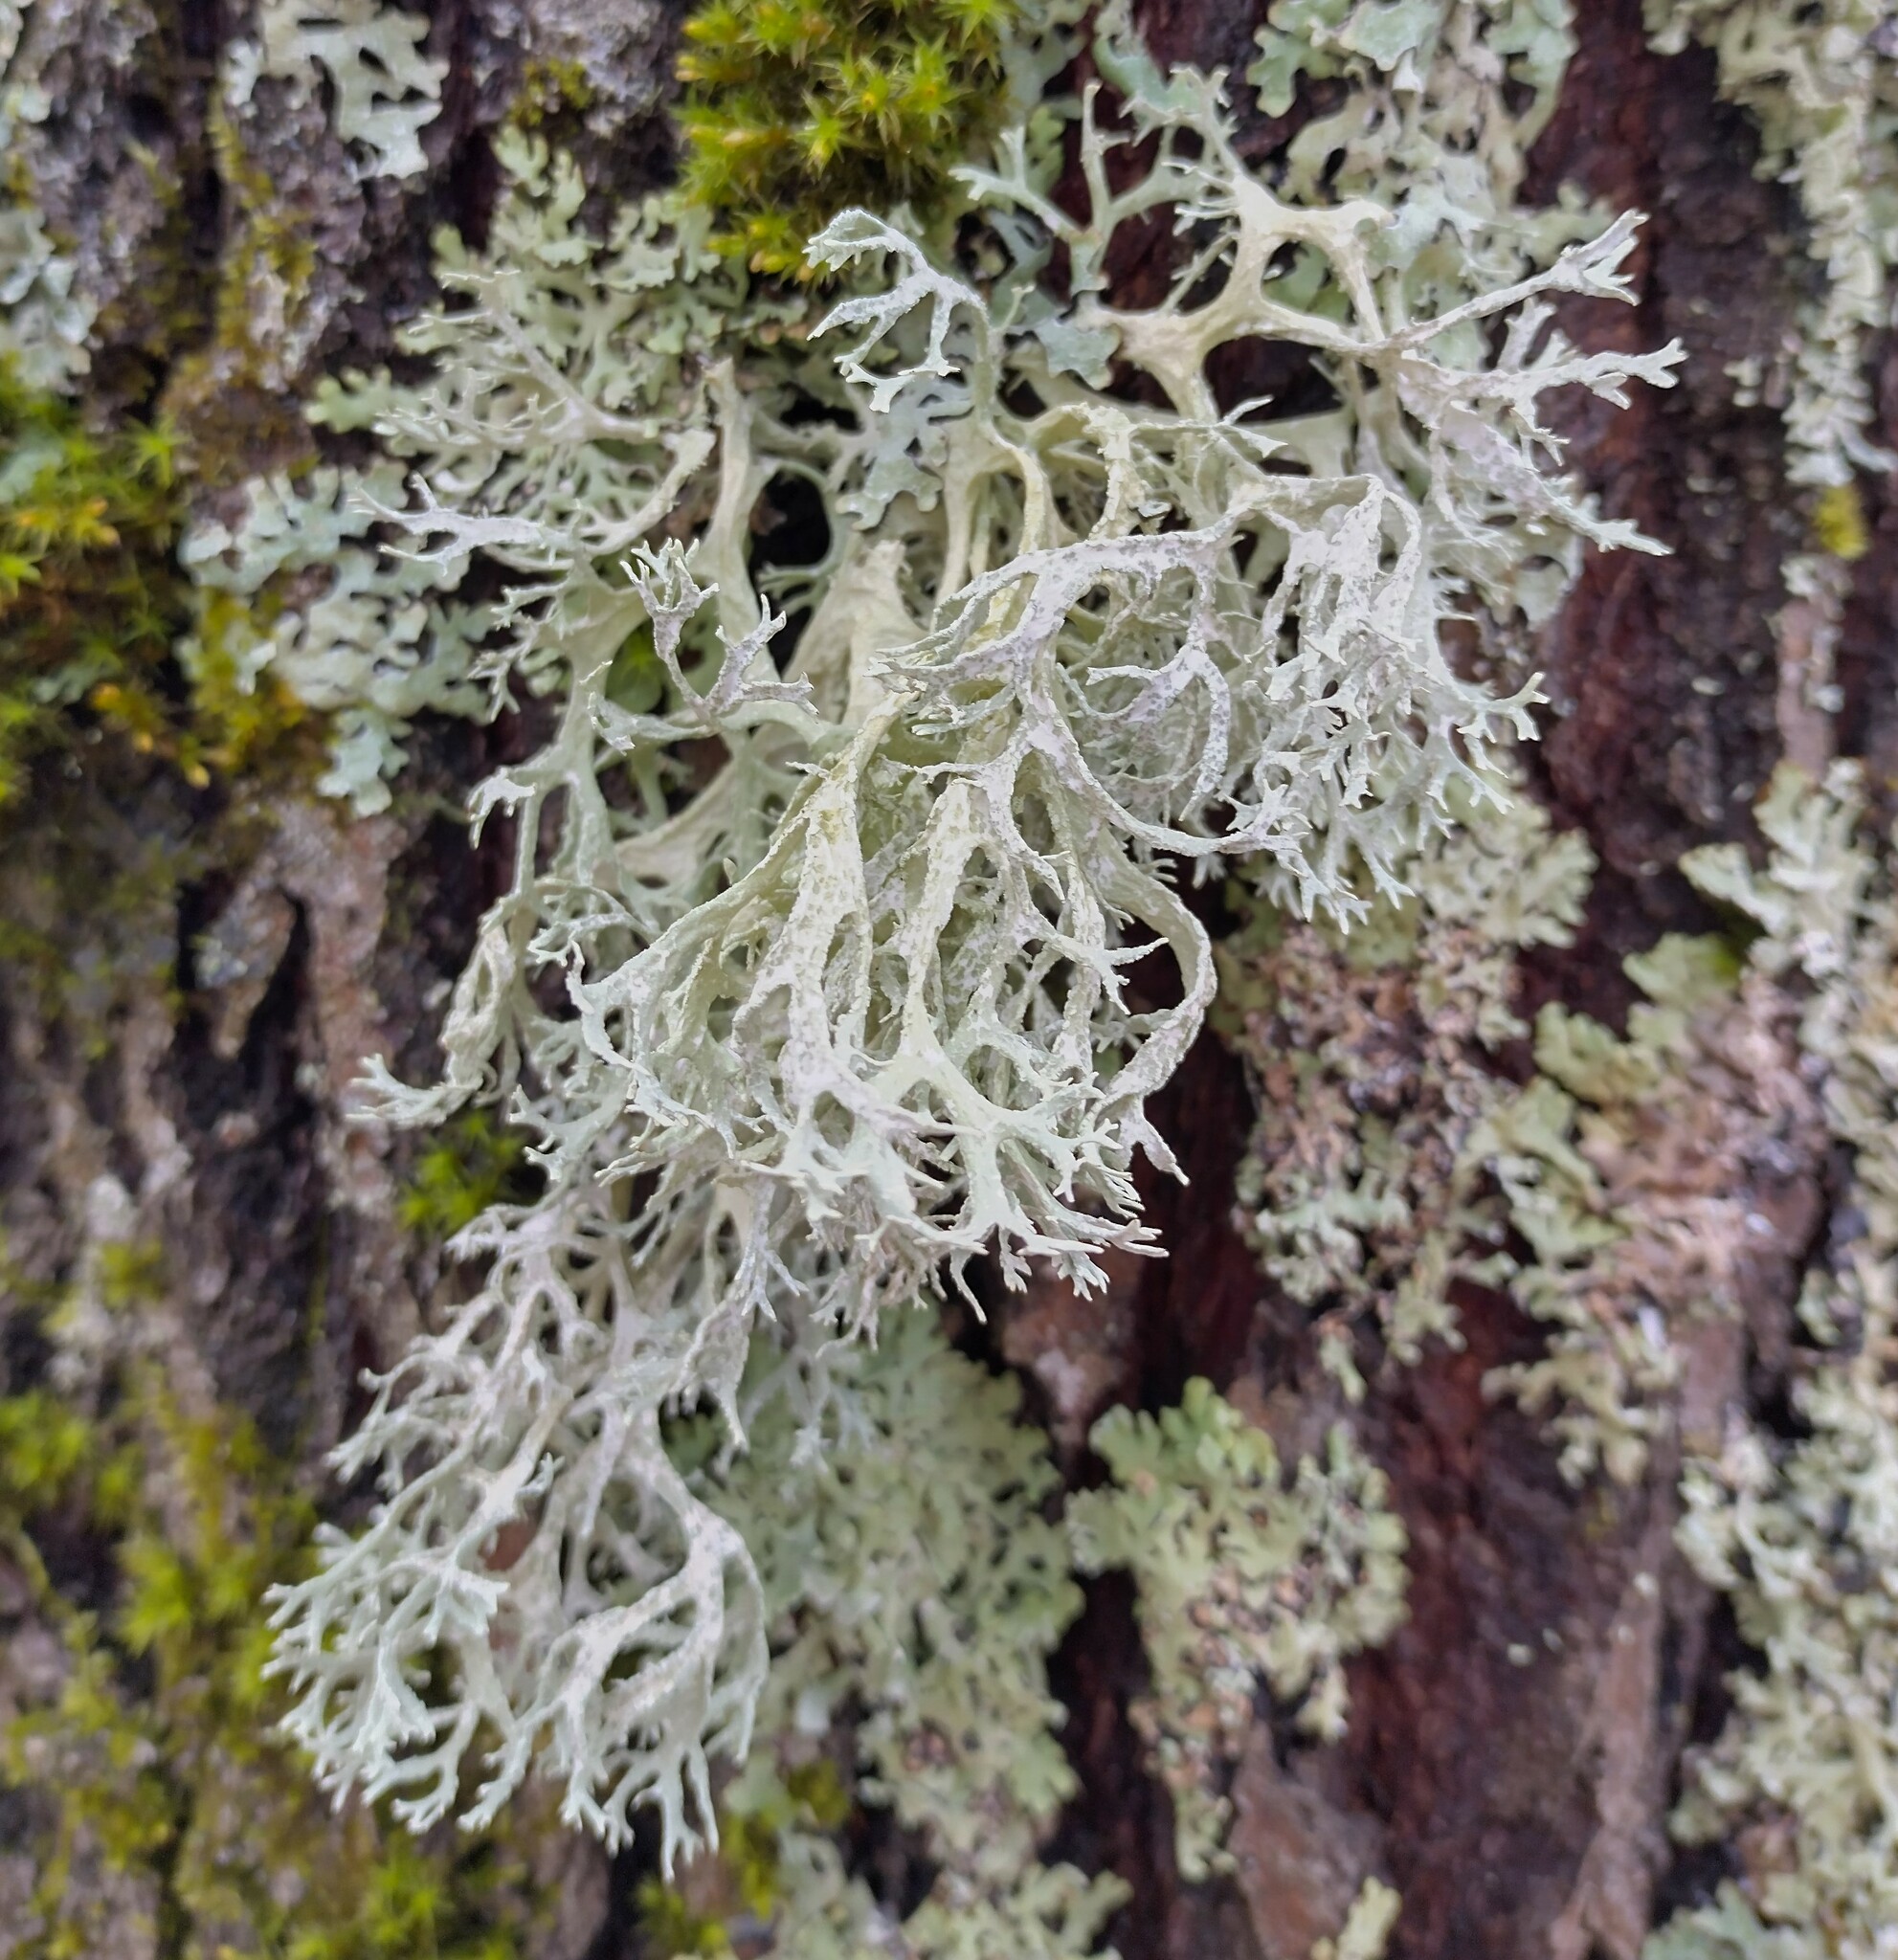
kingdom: Fungi
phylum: Ascomycota
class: Lecanoromycetes
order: Lecanorales
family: Parmeliaceae
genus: Evernia
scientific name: Evernia prunastri
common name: Oak moss
